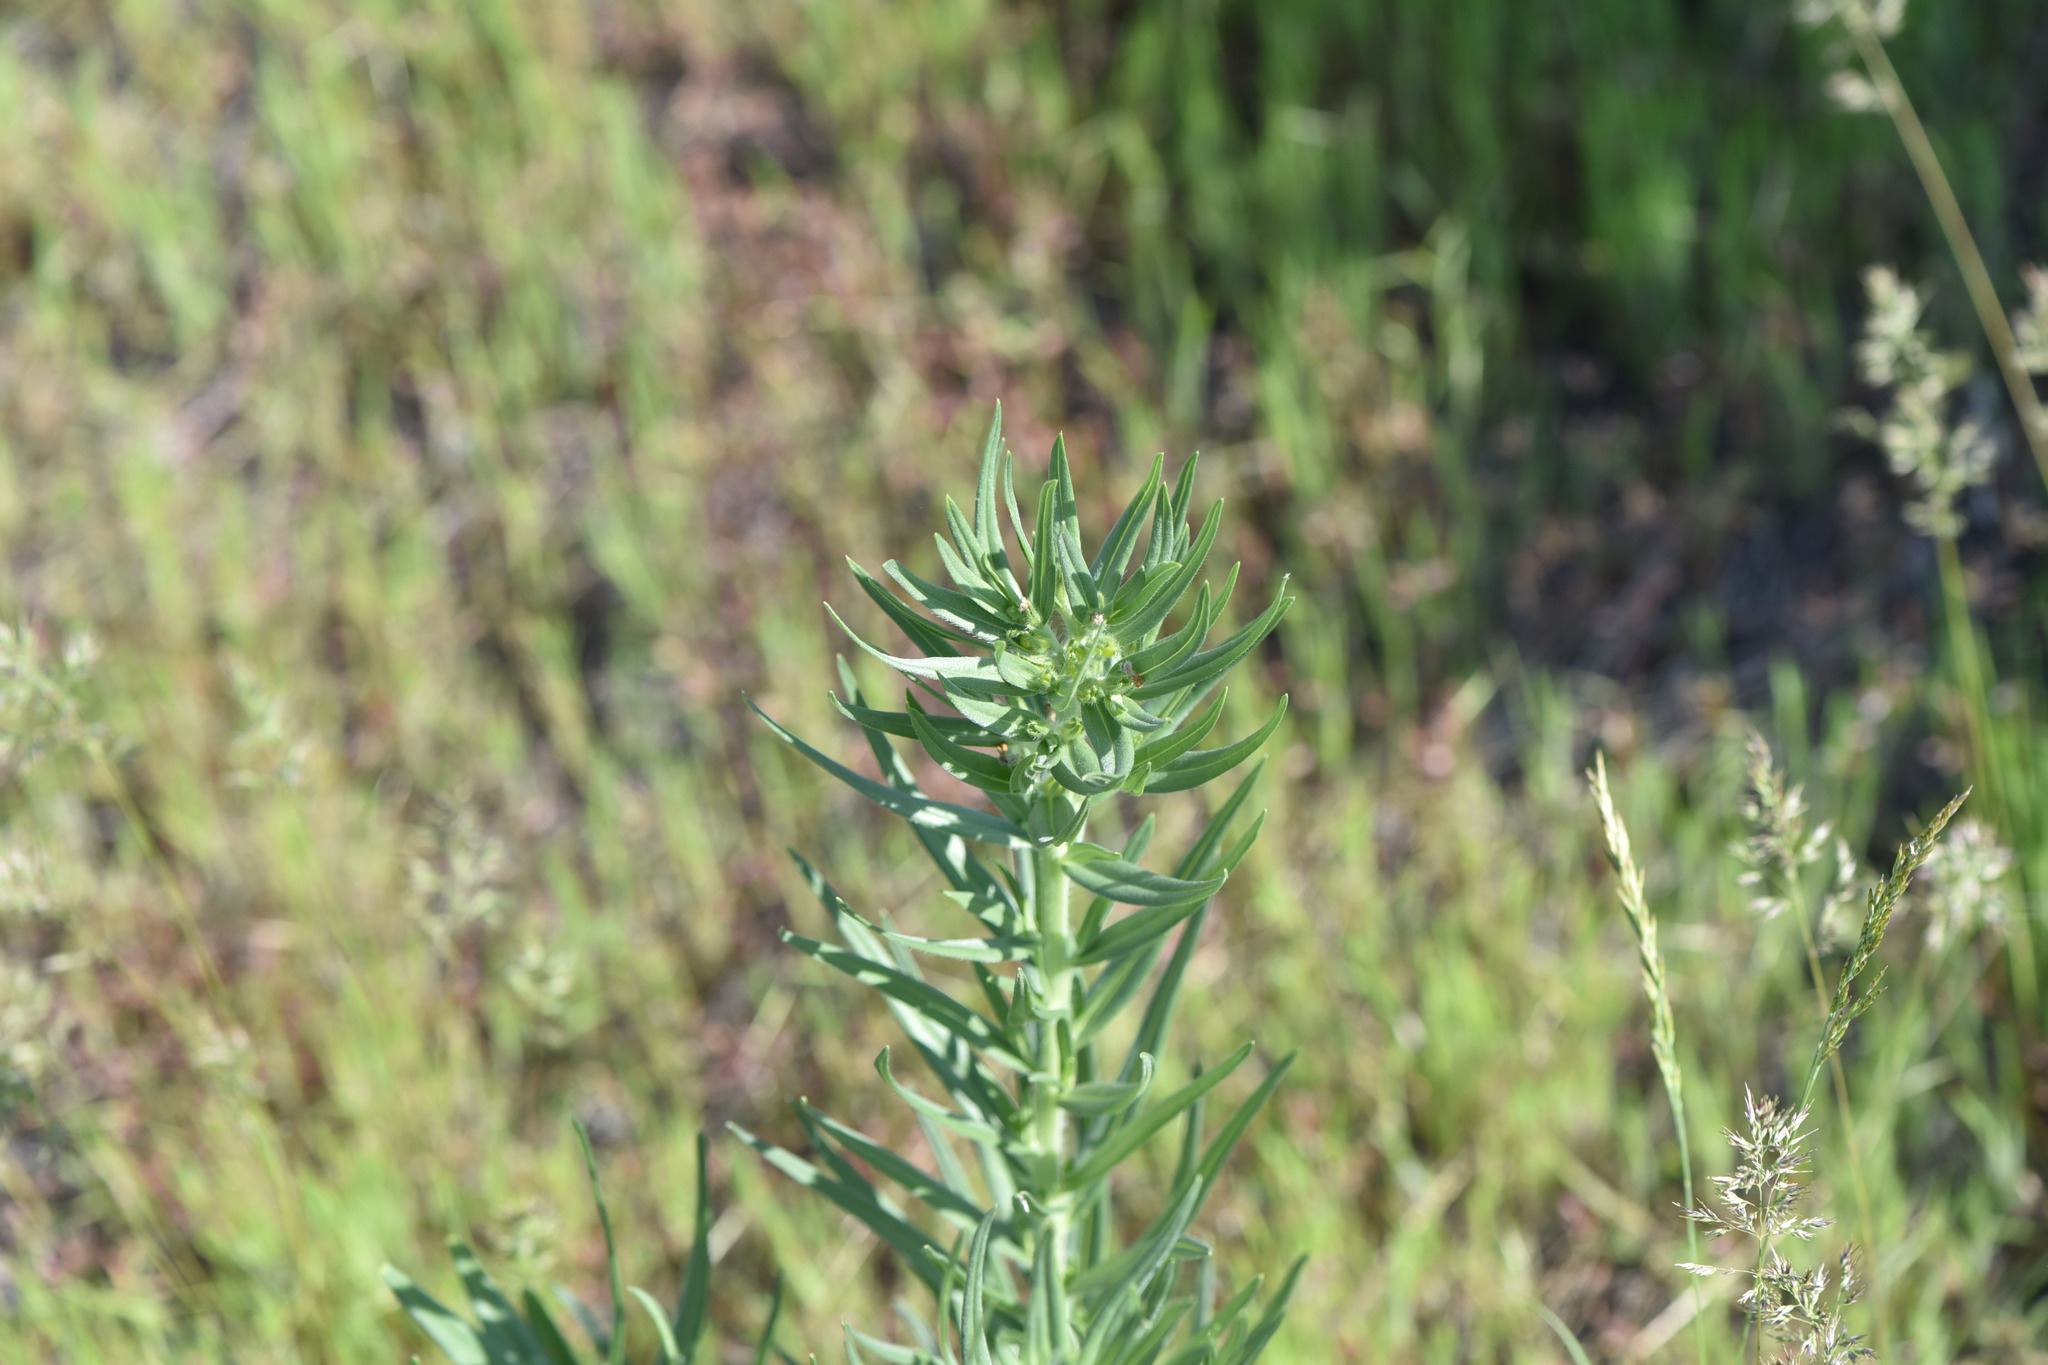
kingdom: Plantae
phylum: Tracheophyta
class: Magnoliopsida
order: Boraginales
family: Boraginaceae
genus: Lithospermum
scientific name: Lithospermum ruderale
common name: Western gromwell
